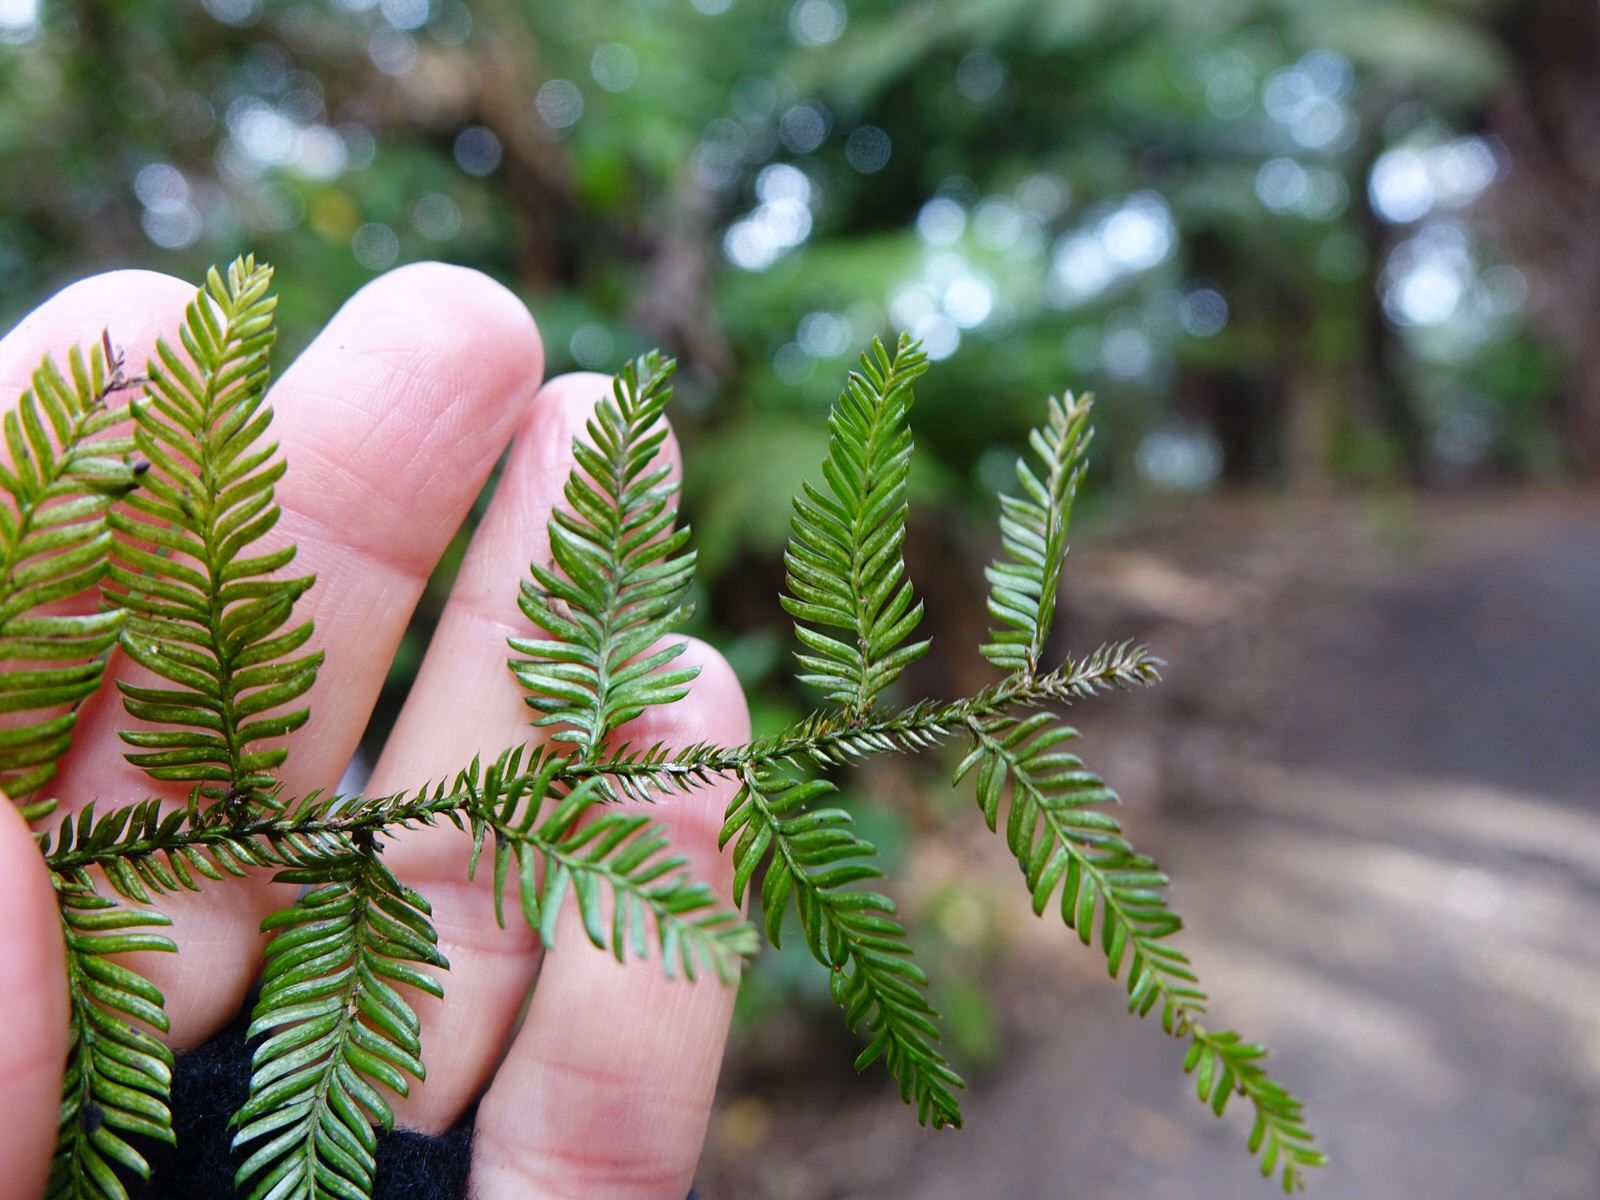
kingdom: Plantae
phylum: Tracheophyta
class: Pinopsida
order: Pinales
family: Podocarpaceae
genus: Dacrycarpus
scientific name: Dacrycarpus dacrydioides
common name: White pine
